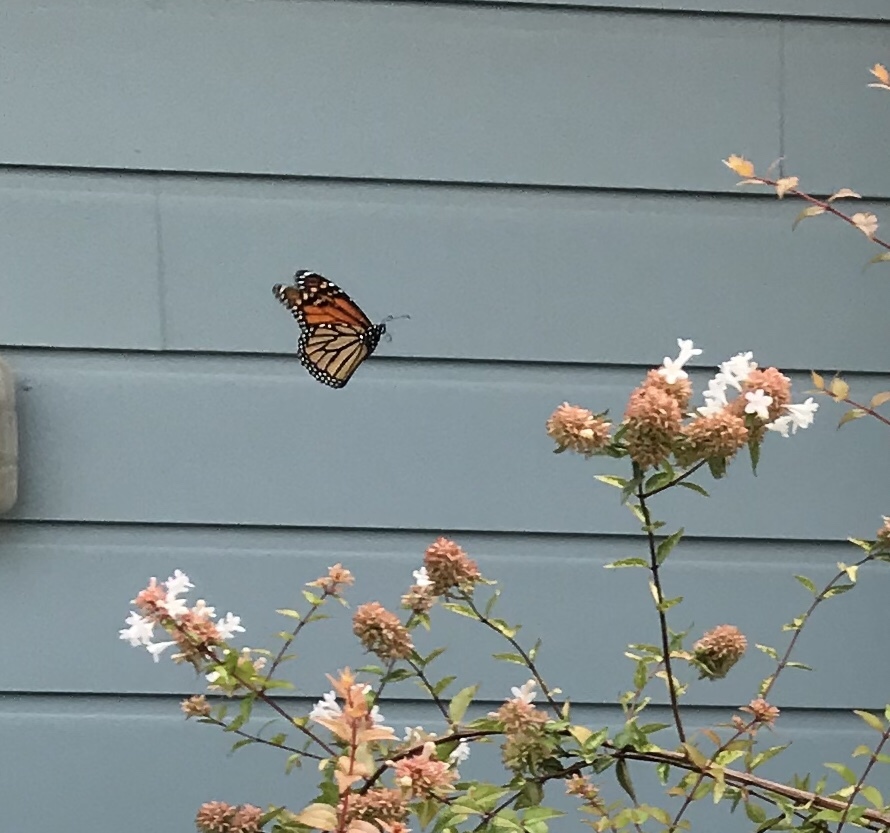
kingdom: Animalia
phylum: Arthropoda
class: Insecta
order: Lepidoptera
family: Nymphalidae
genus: Danaus
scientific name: Danaus plexippus
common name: Monarch
